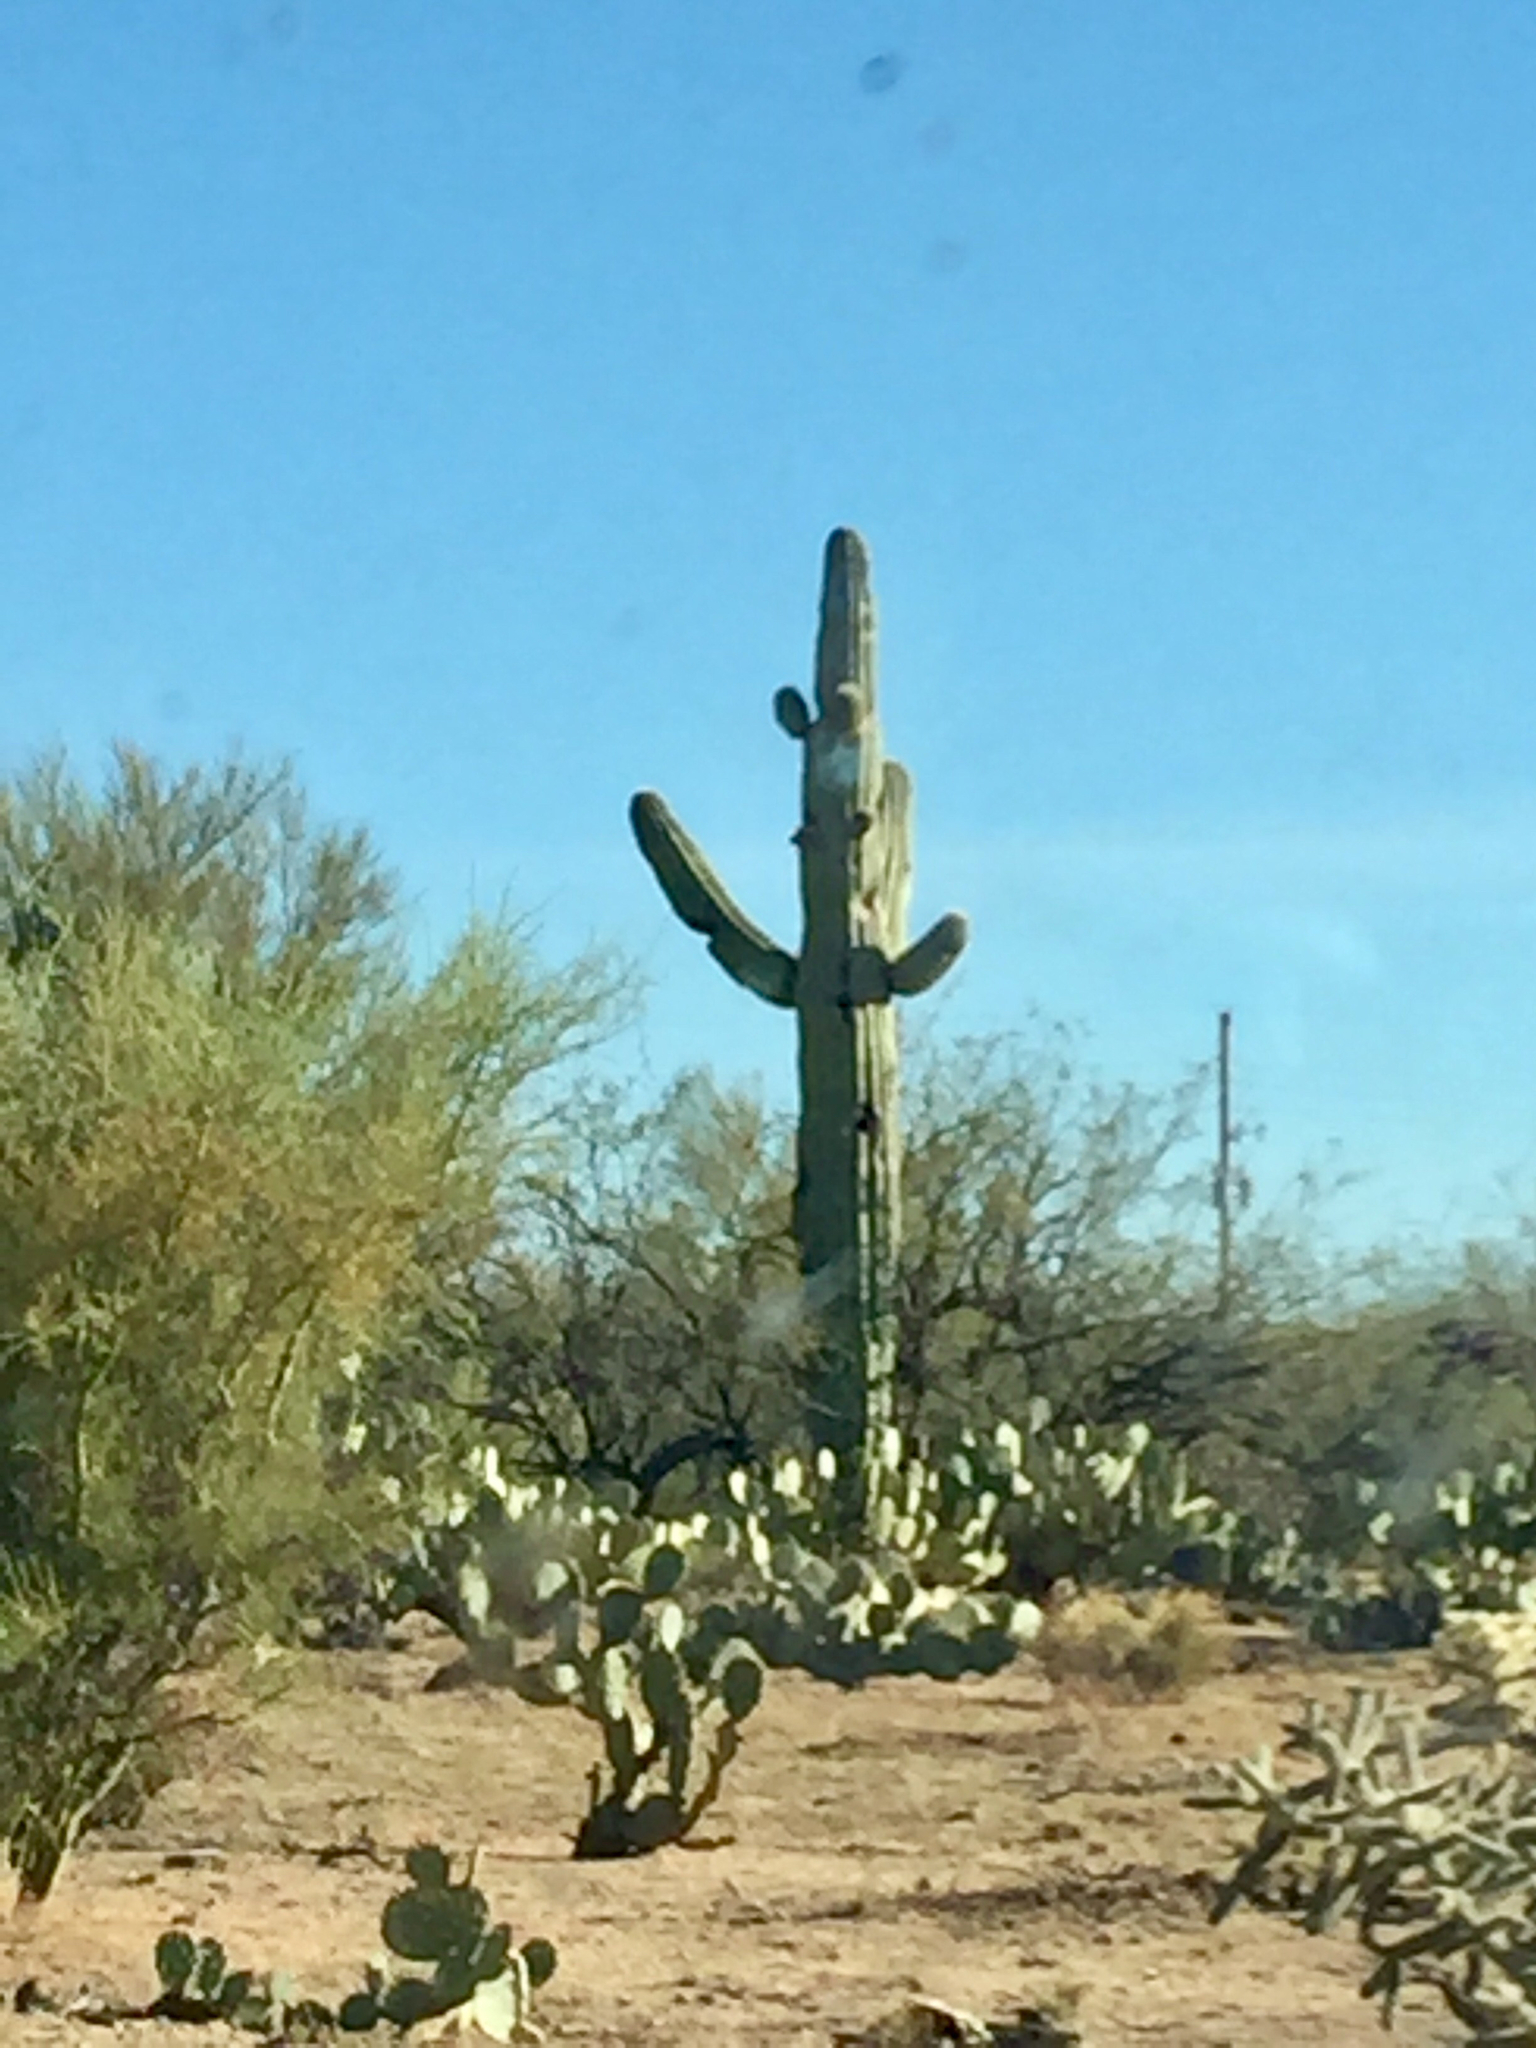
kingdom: Plantae
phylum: Tracheophyta
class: Magnoliopsida
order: Caryophyllales
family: Cactaceae
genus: Carnegiea
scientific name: Carnegiea gigantea
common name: Saguaro
